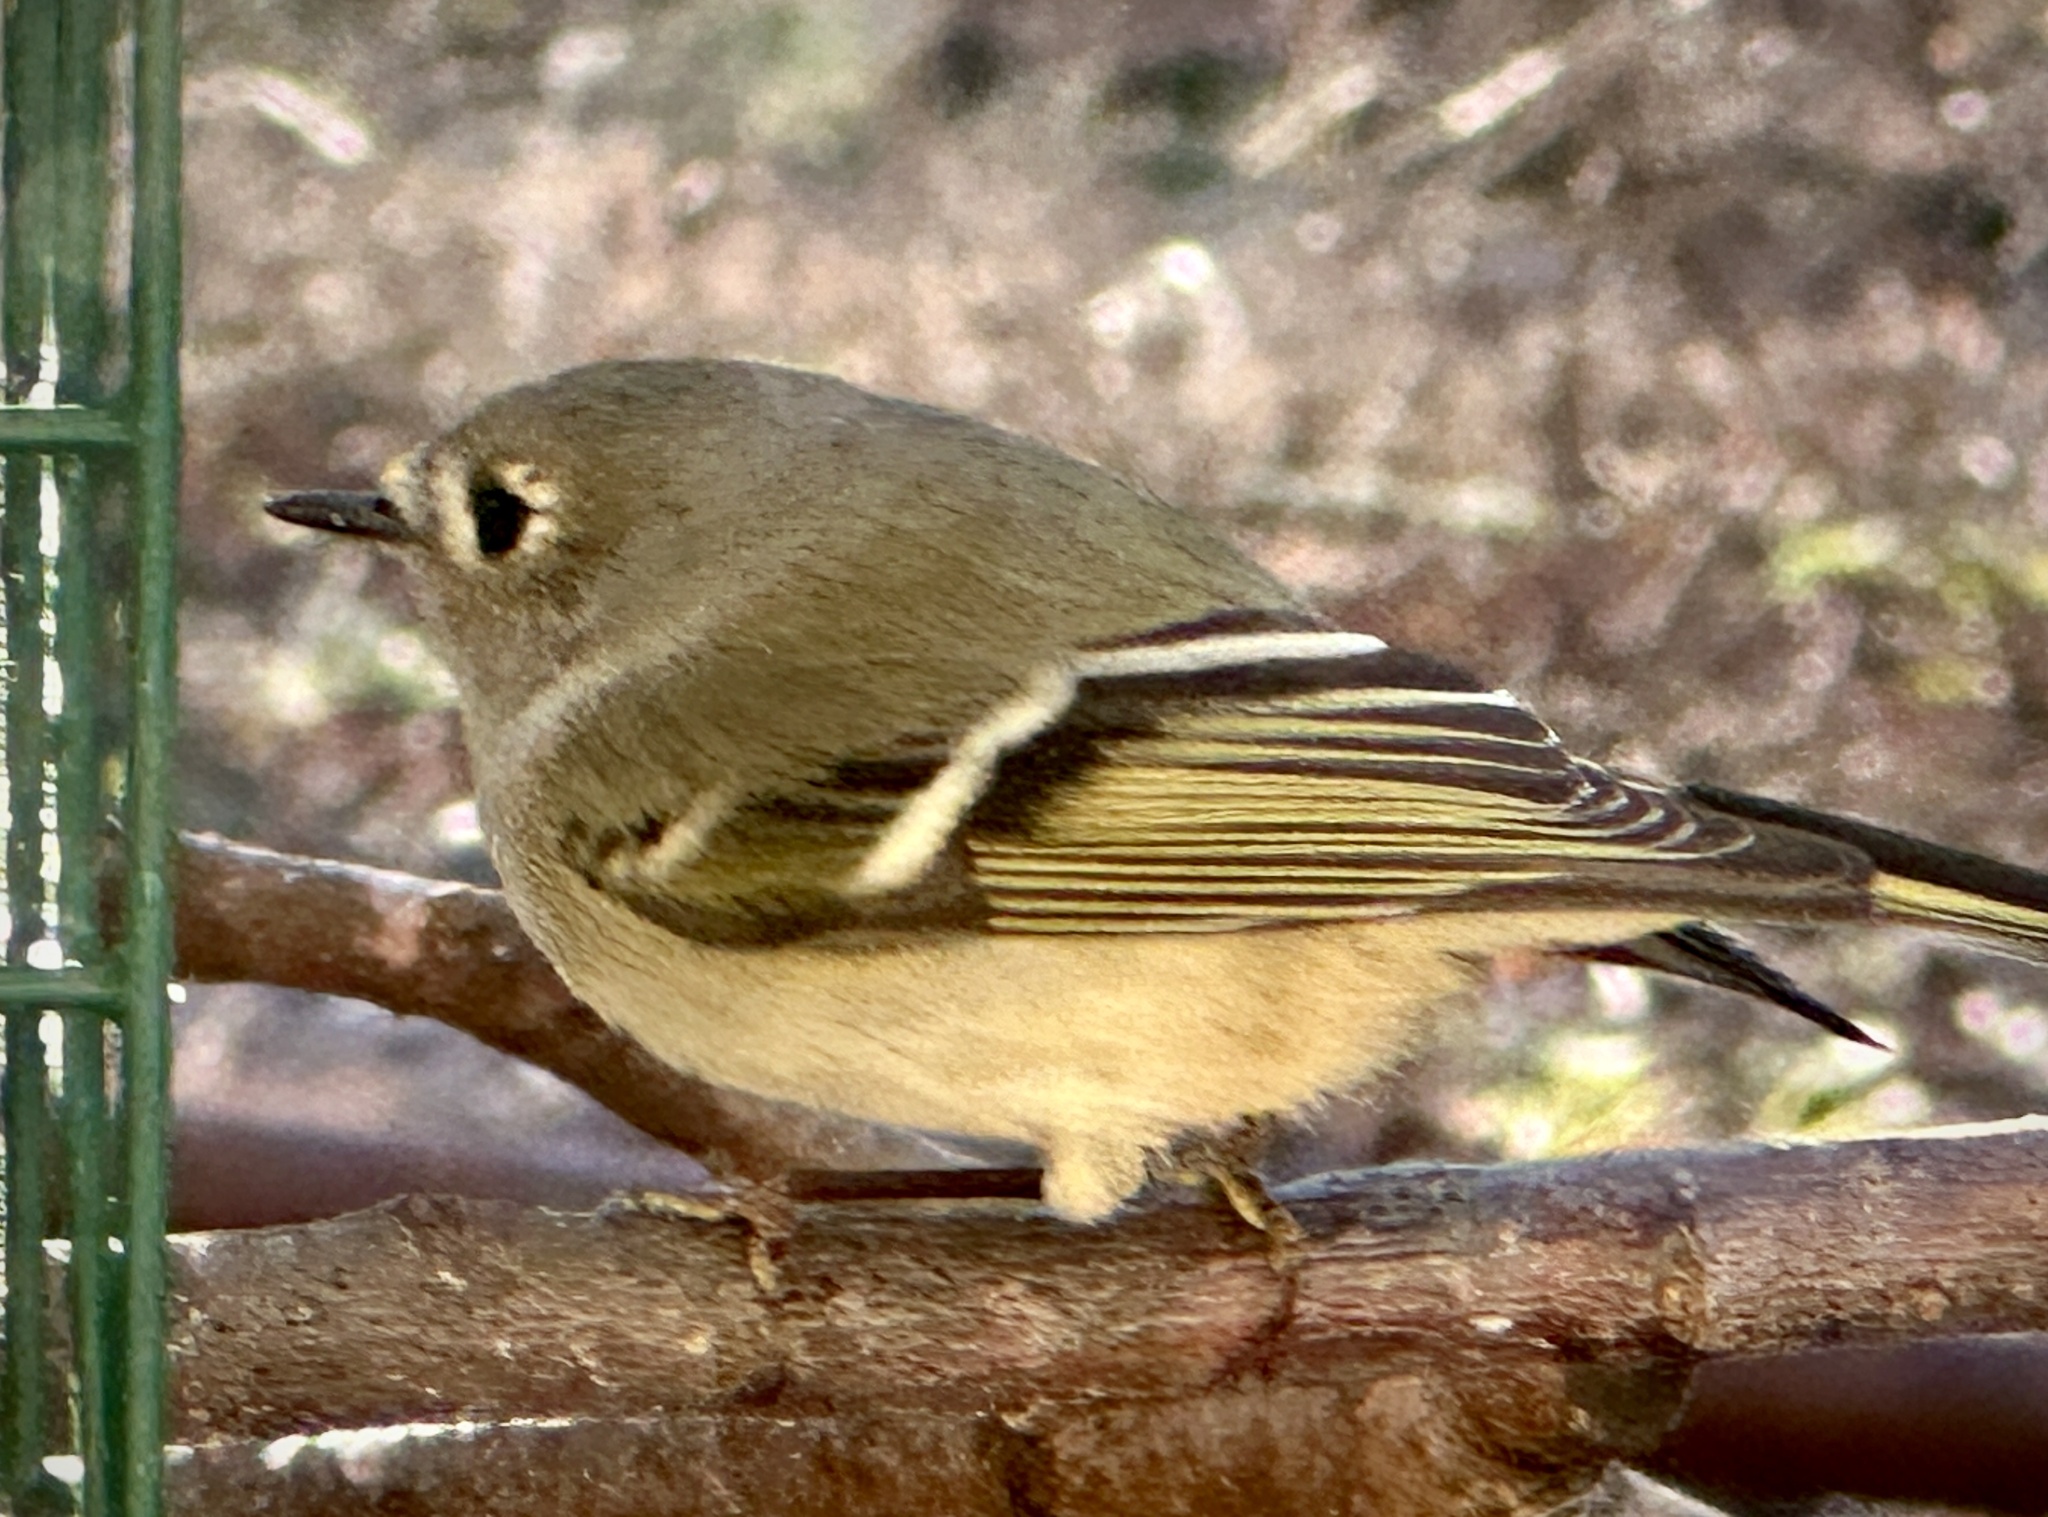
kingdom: Animalia
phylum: Chordata
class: Aves
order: Passeriformes
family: Regulidae
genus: Regulus
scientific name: Regulus calendula
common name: Ruby-crowned kinglet
